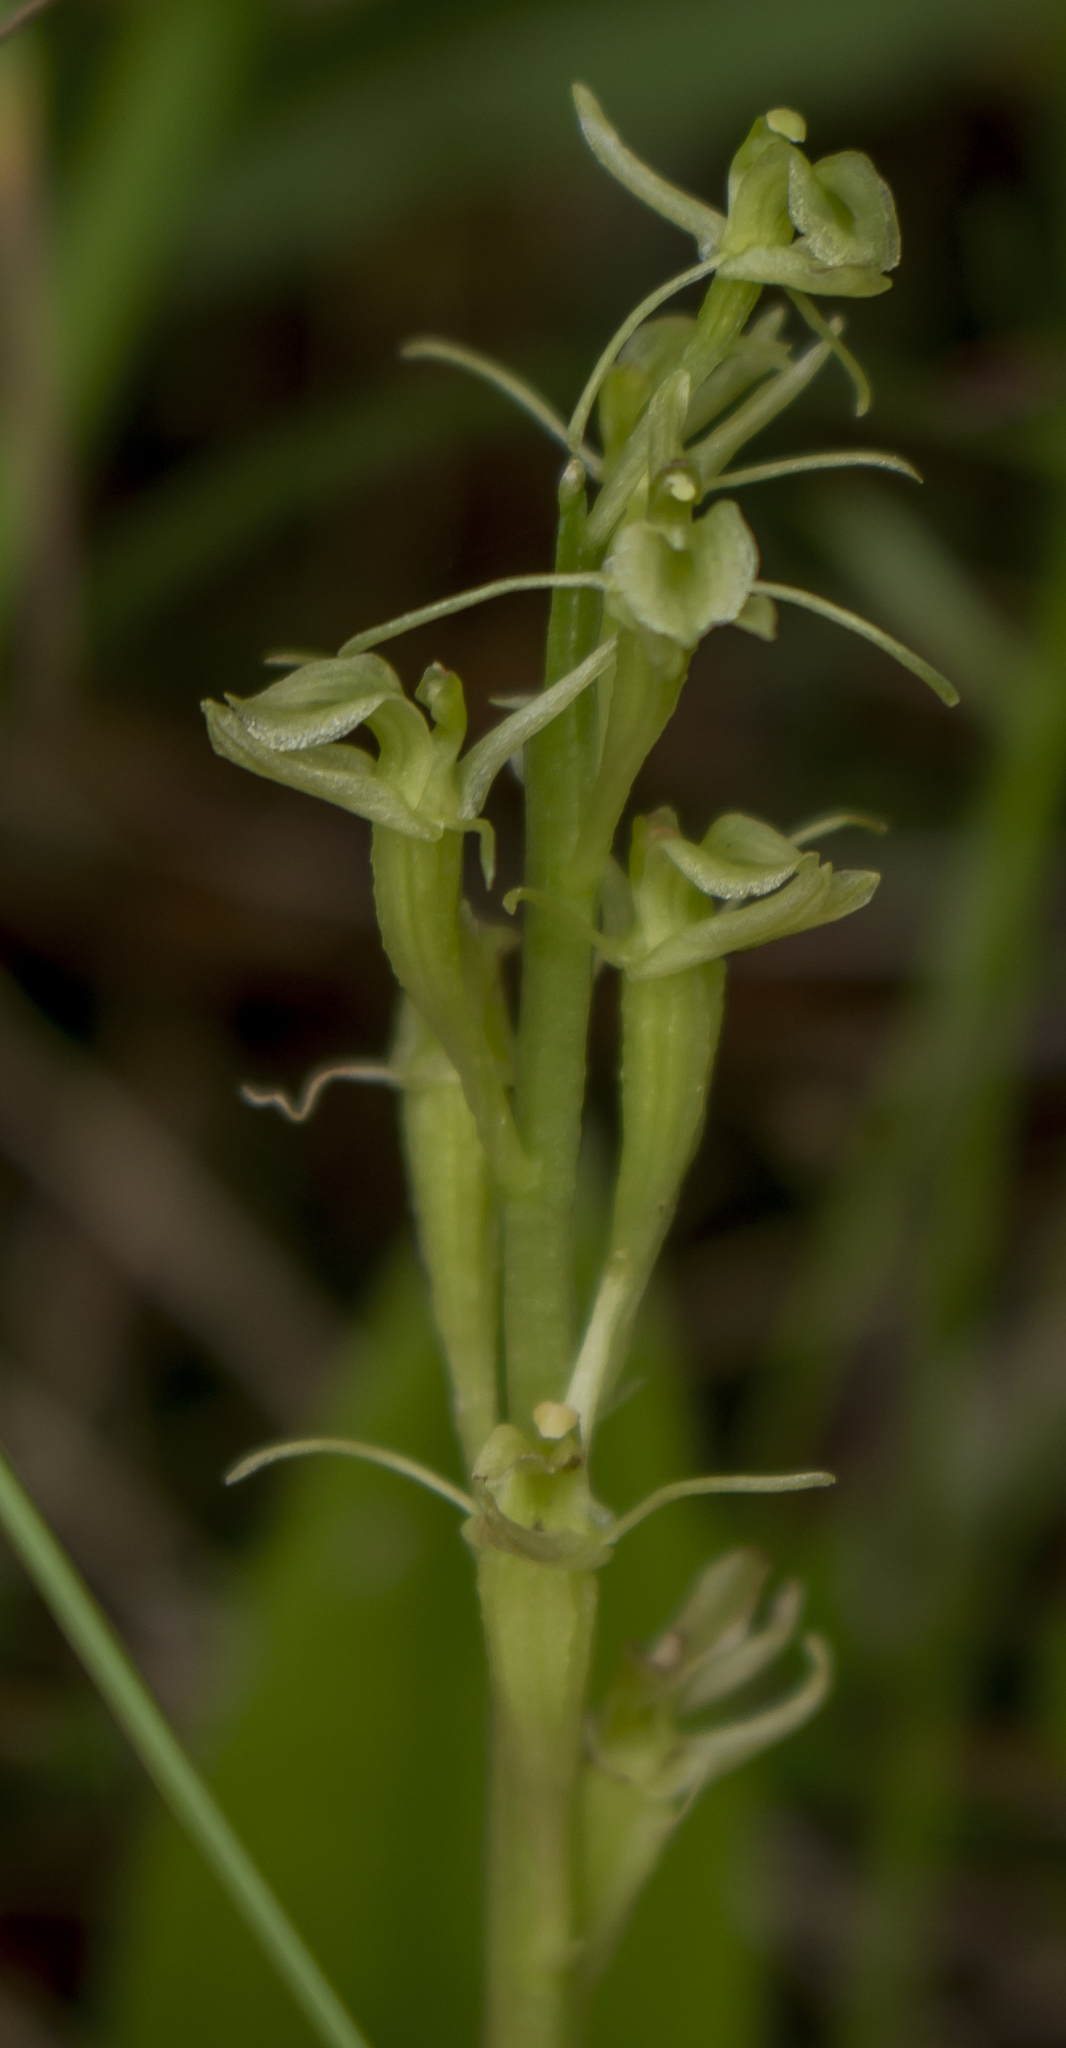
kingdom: Animalia
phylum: Arthropoda
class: Insecta
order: Coleoptera
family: Curculionidae
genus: Liparis
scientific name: Liparis loeselii
